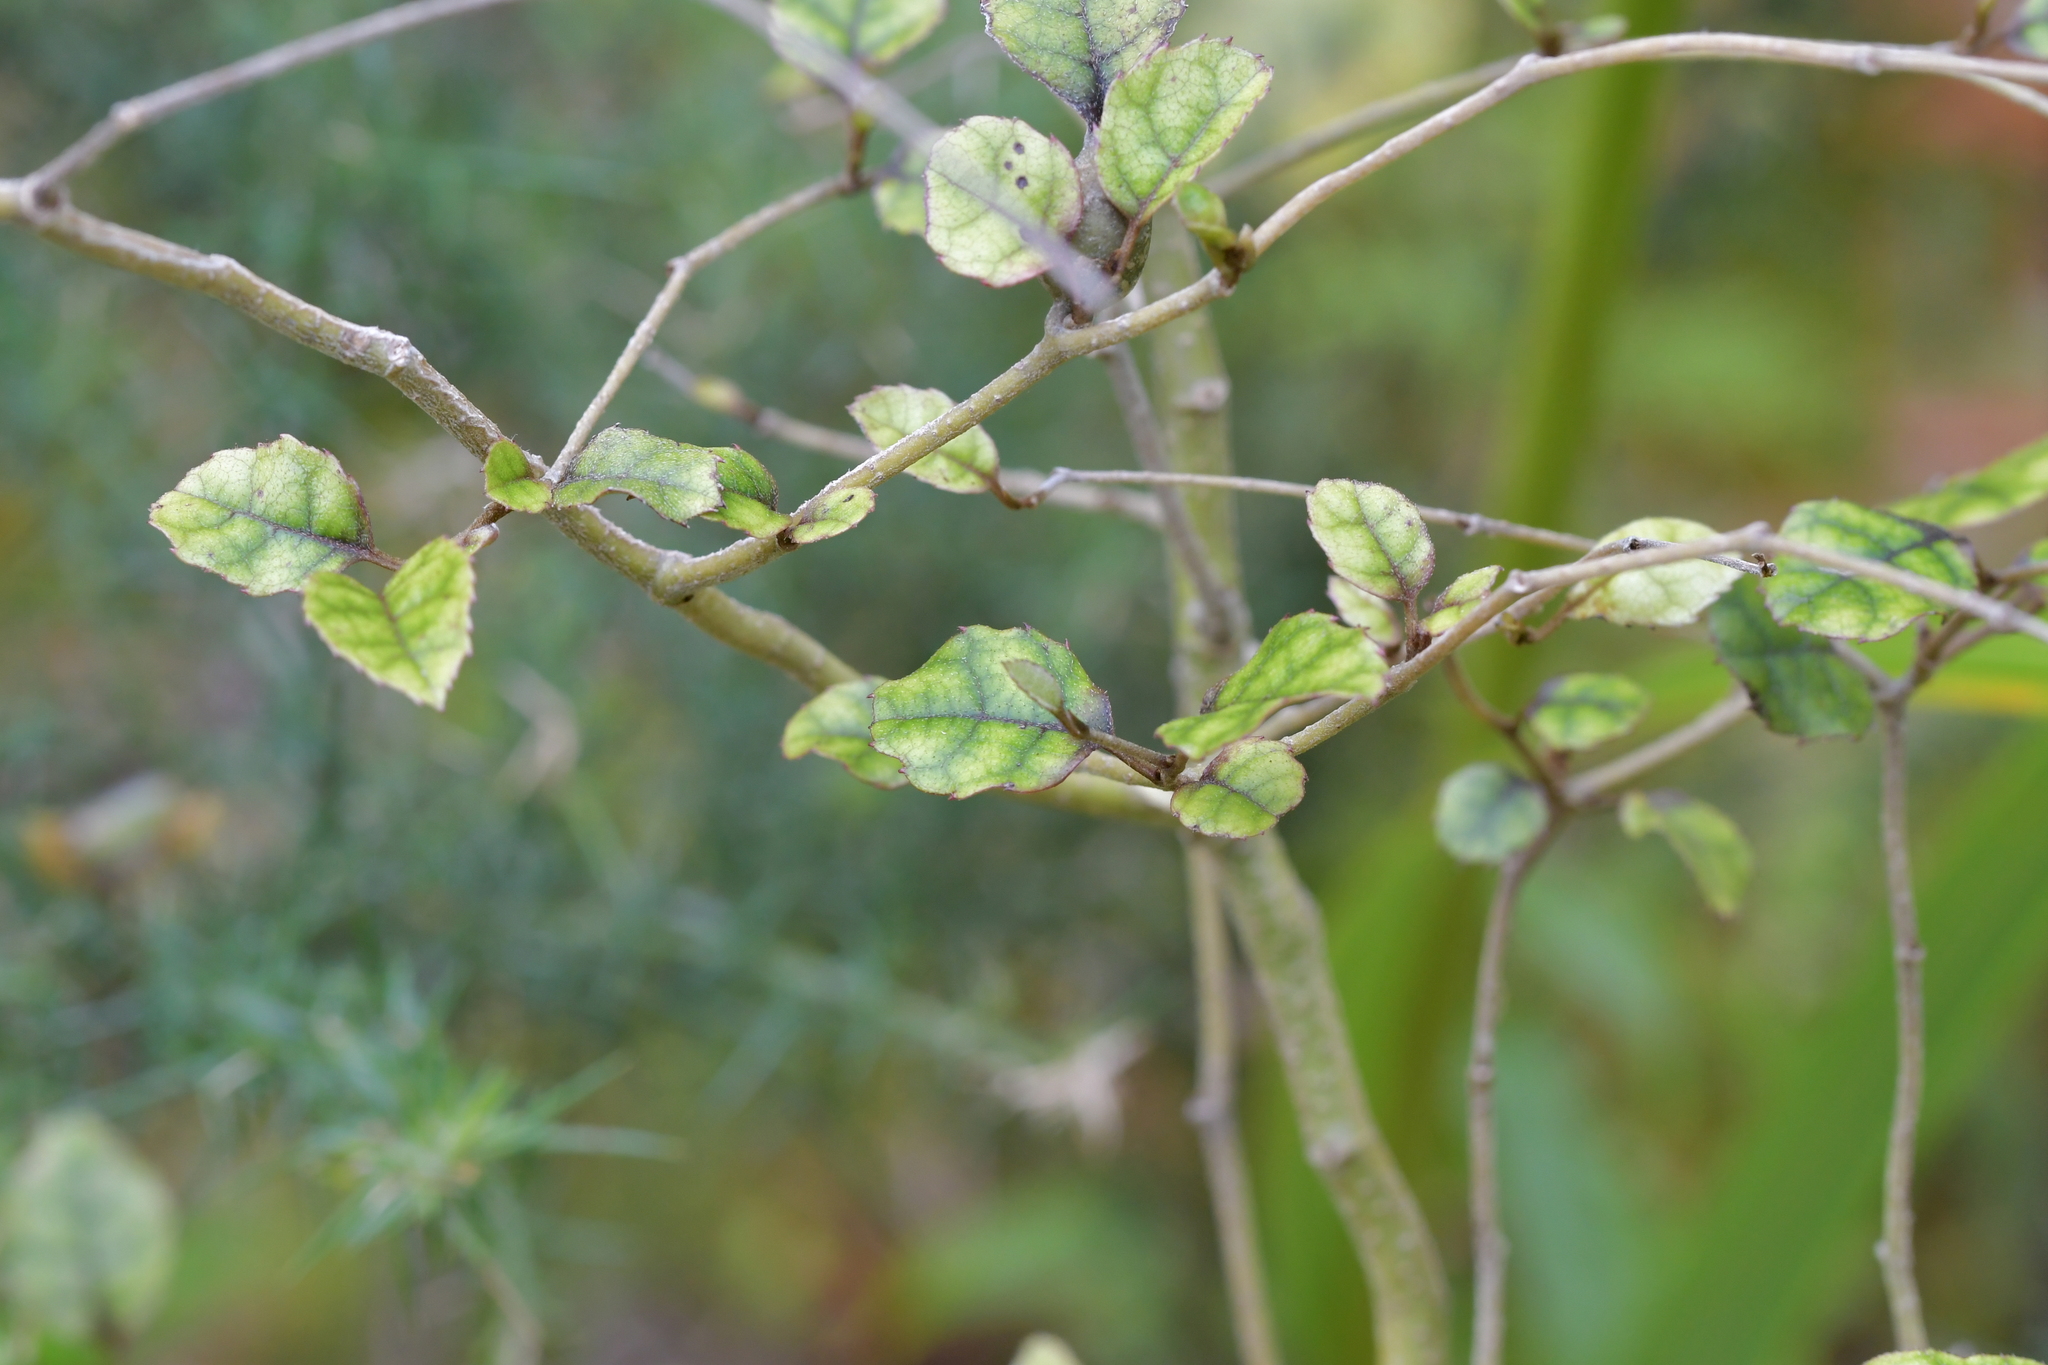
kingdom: Plantae
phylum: Tracheophyta
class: Magnoliopsida
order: Asterales
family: Rousseaceae
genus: Carpodetus
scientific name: Carpodetus serratus
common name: White mapau
